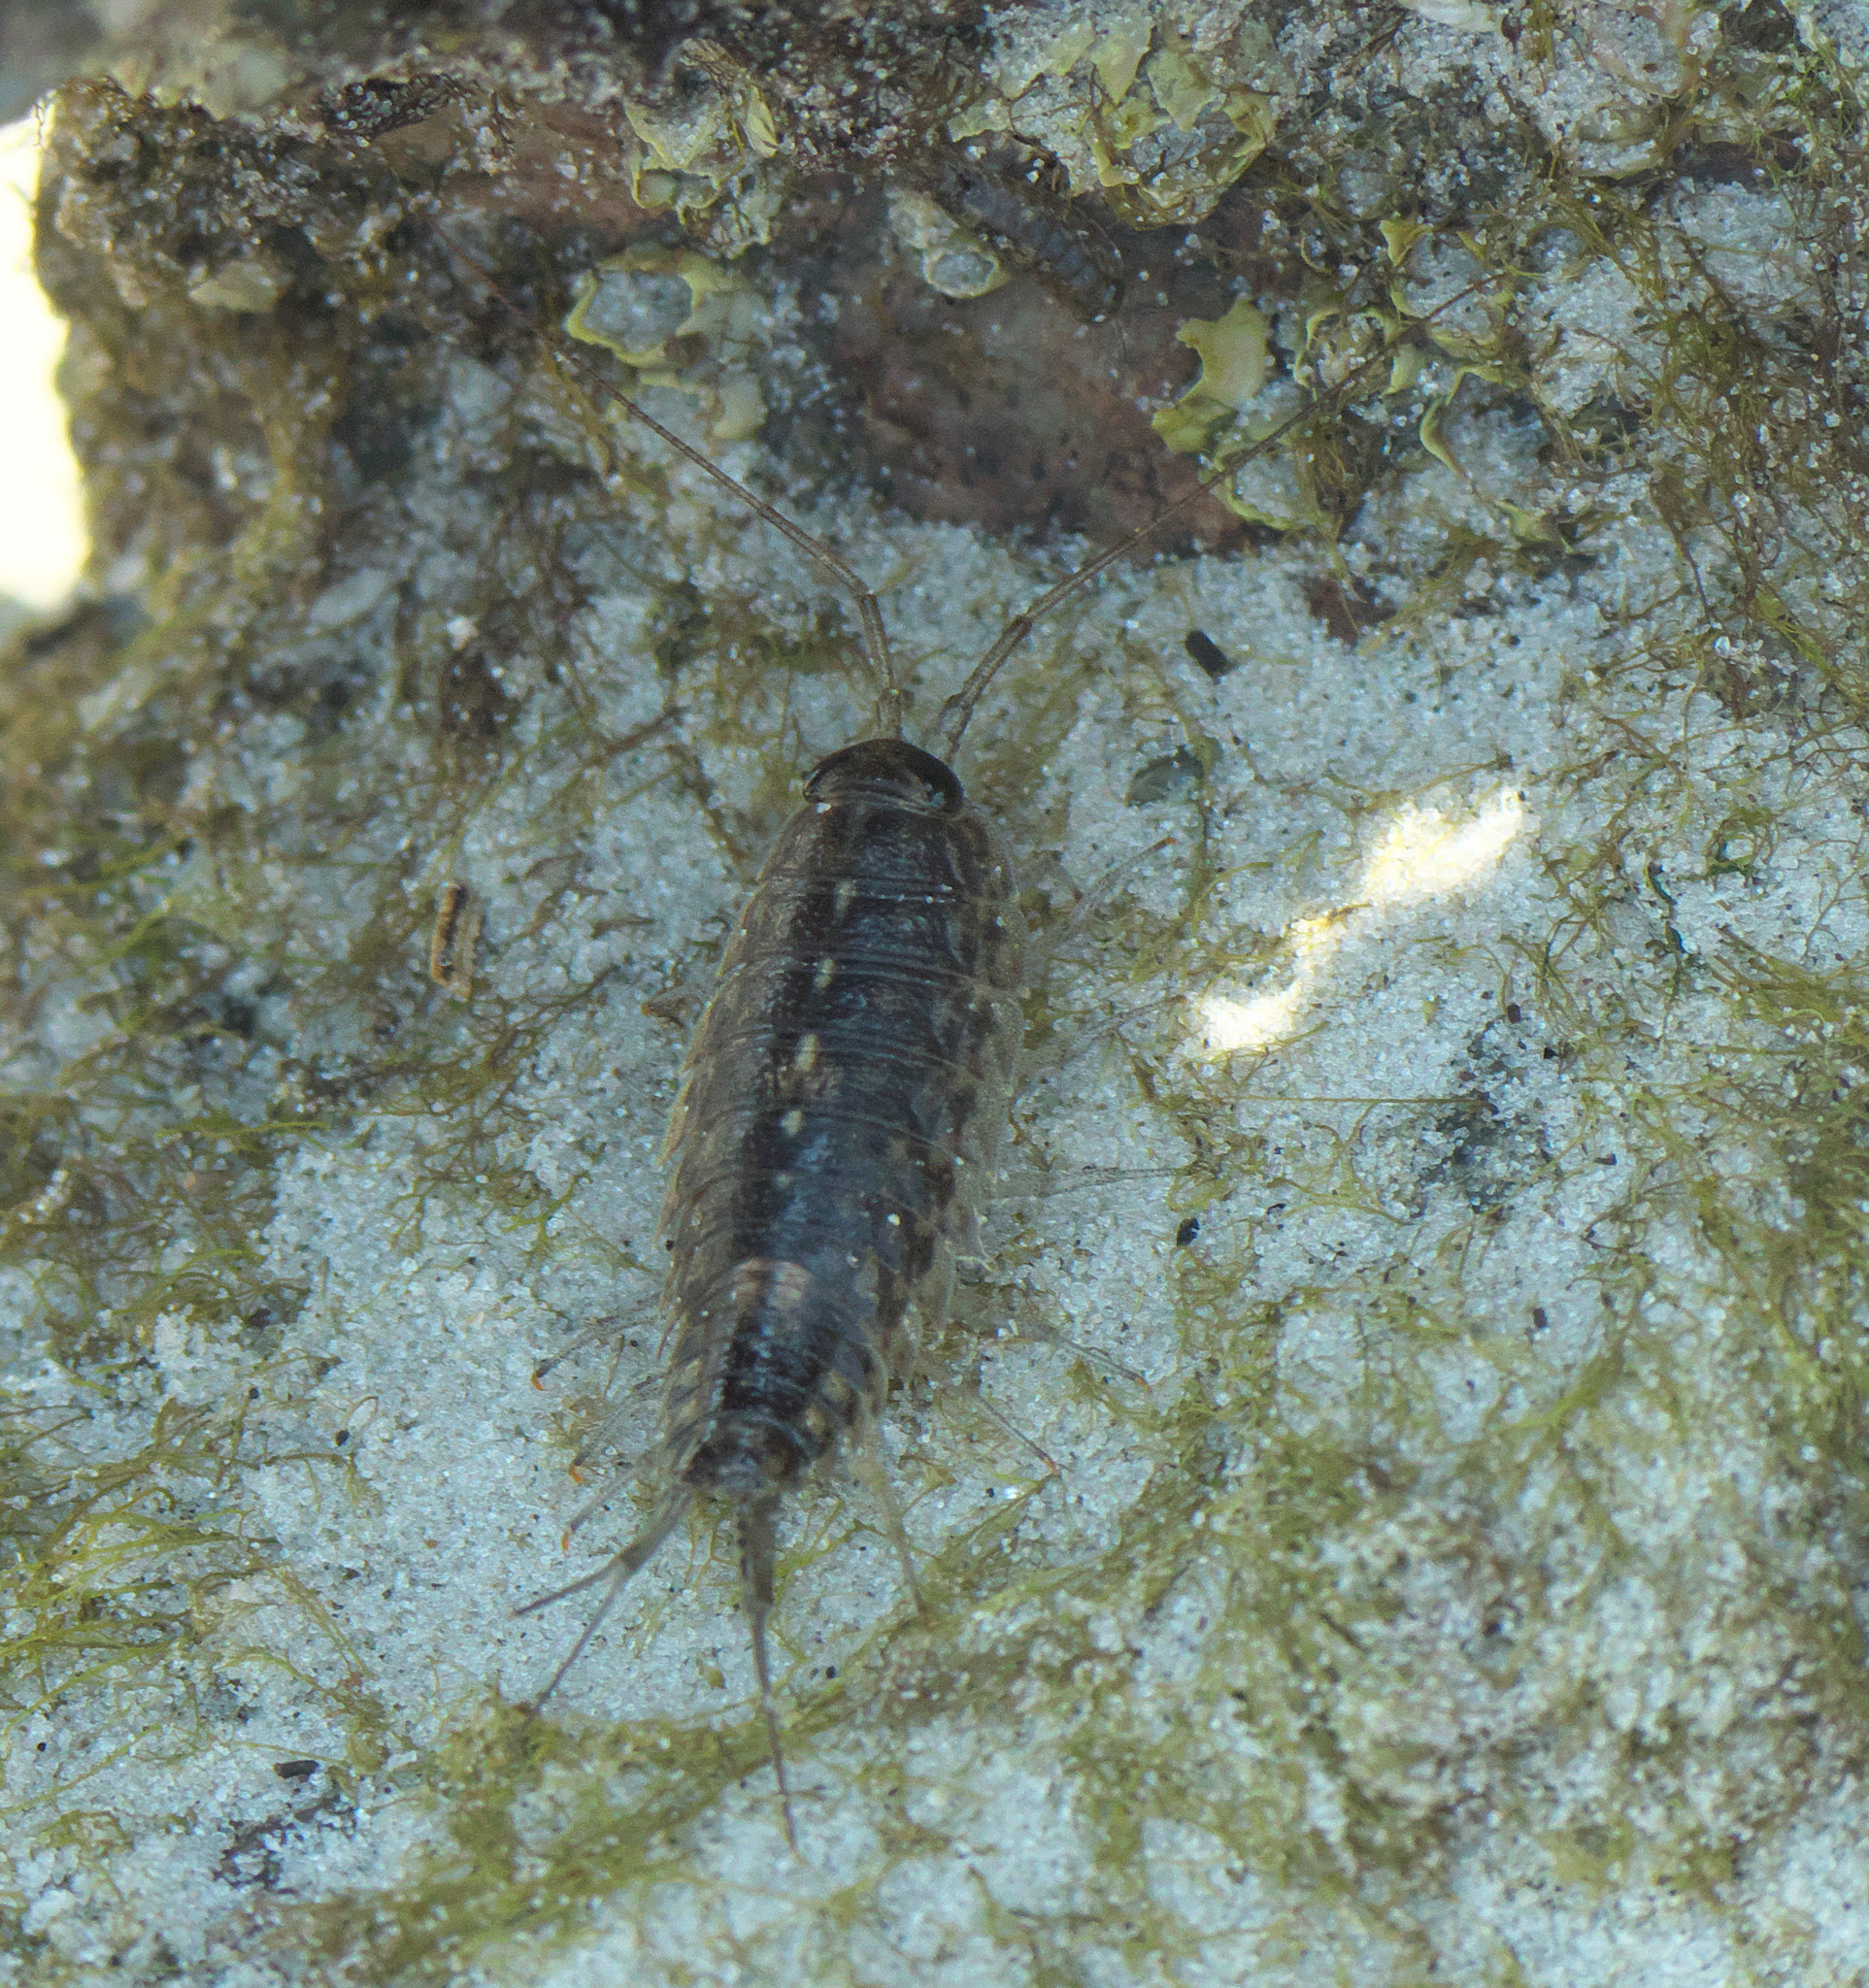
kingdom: Animalia
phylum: Arthropoda
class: Malacostraca
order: Isopoda
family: Ligiidae
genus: Ligia
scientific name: Ligia exotica
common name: Wharf roach
